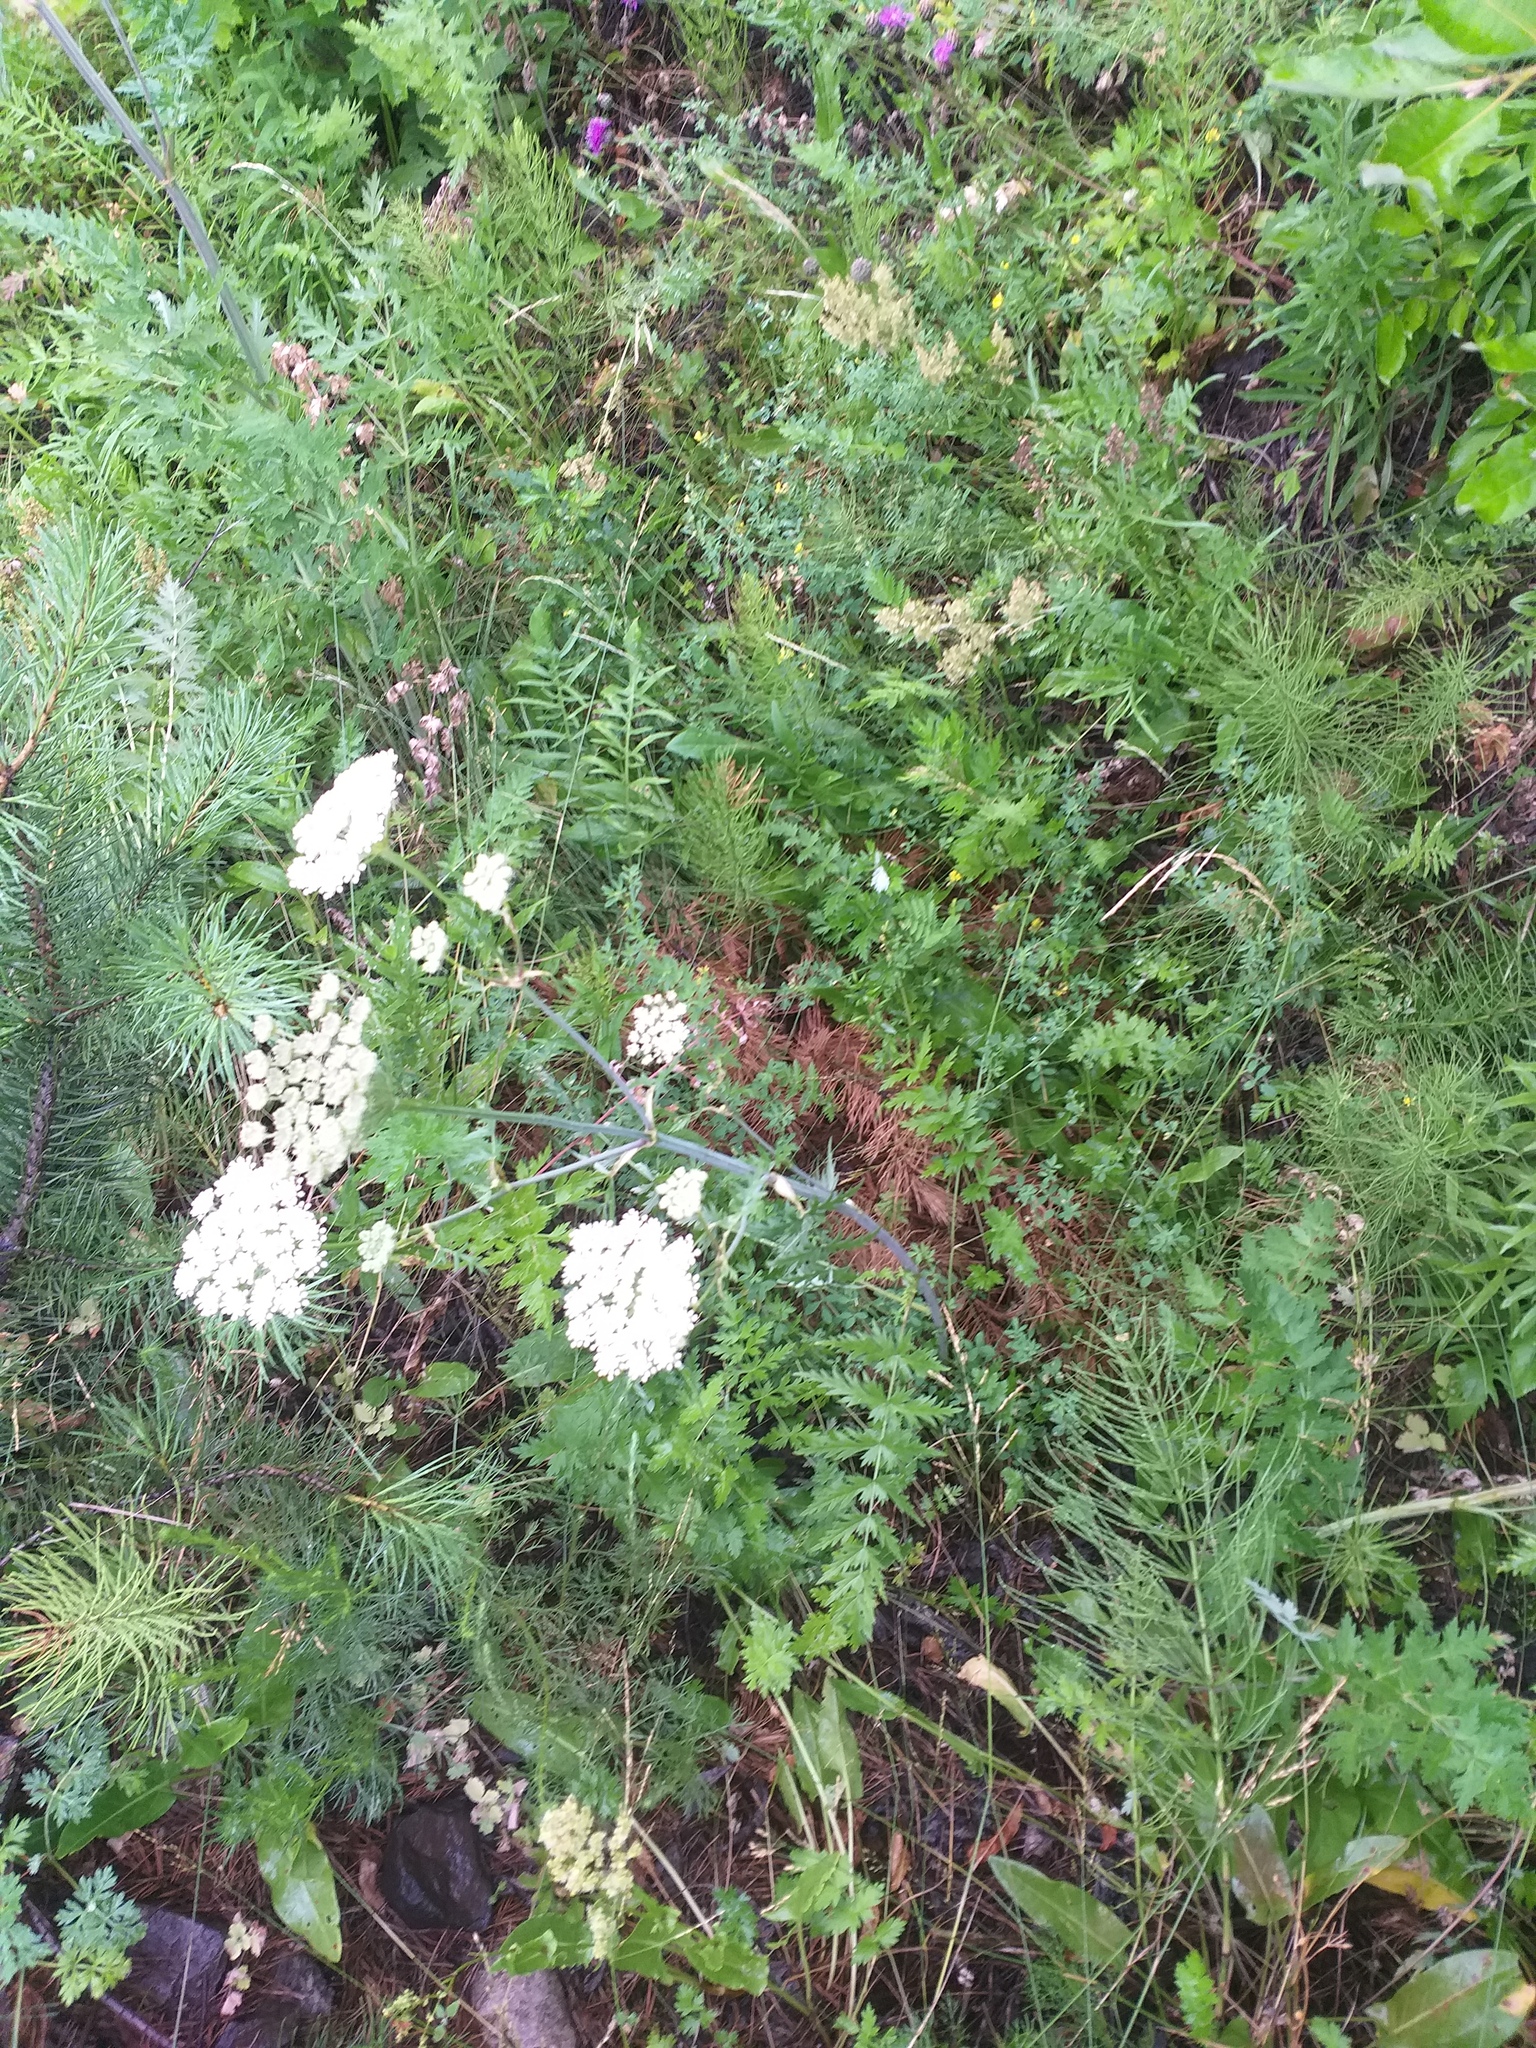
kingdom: Plantae
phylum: Tracheophyta
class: Magnoliopsida
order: Apiales
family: Apiaceae
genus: Seseli
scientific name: Seseli libanotis
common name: Mooncarrot
